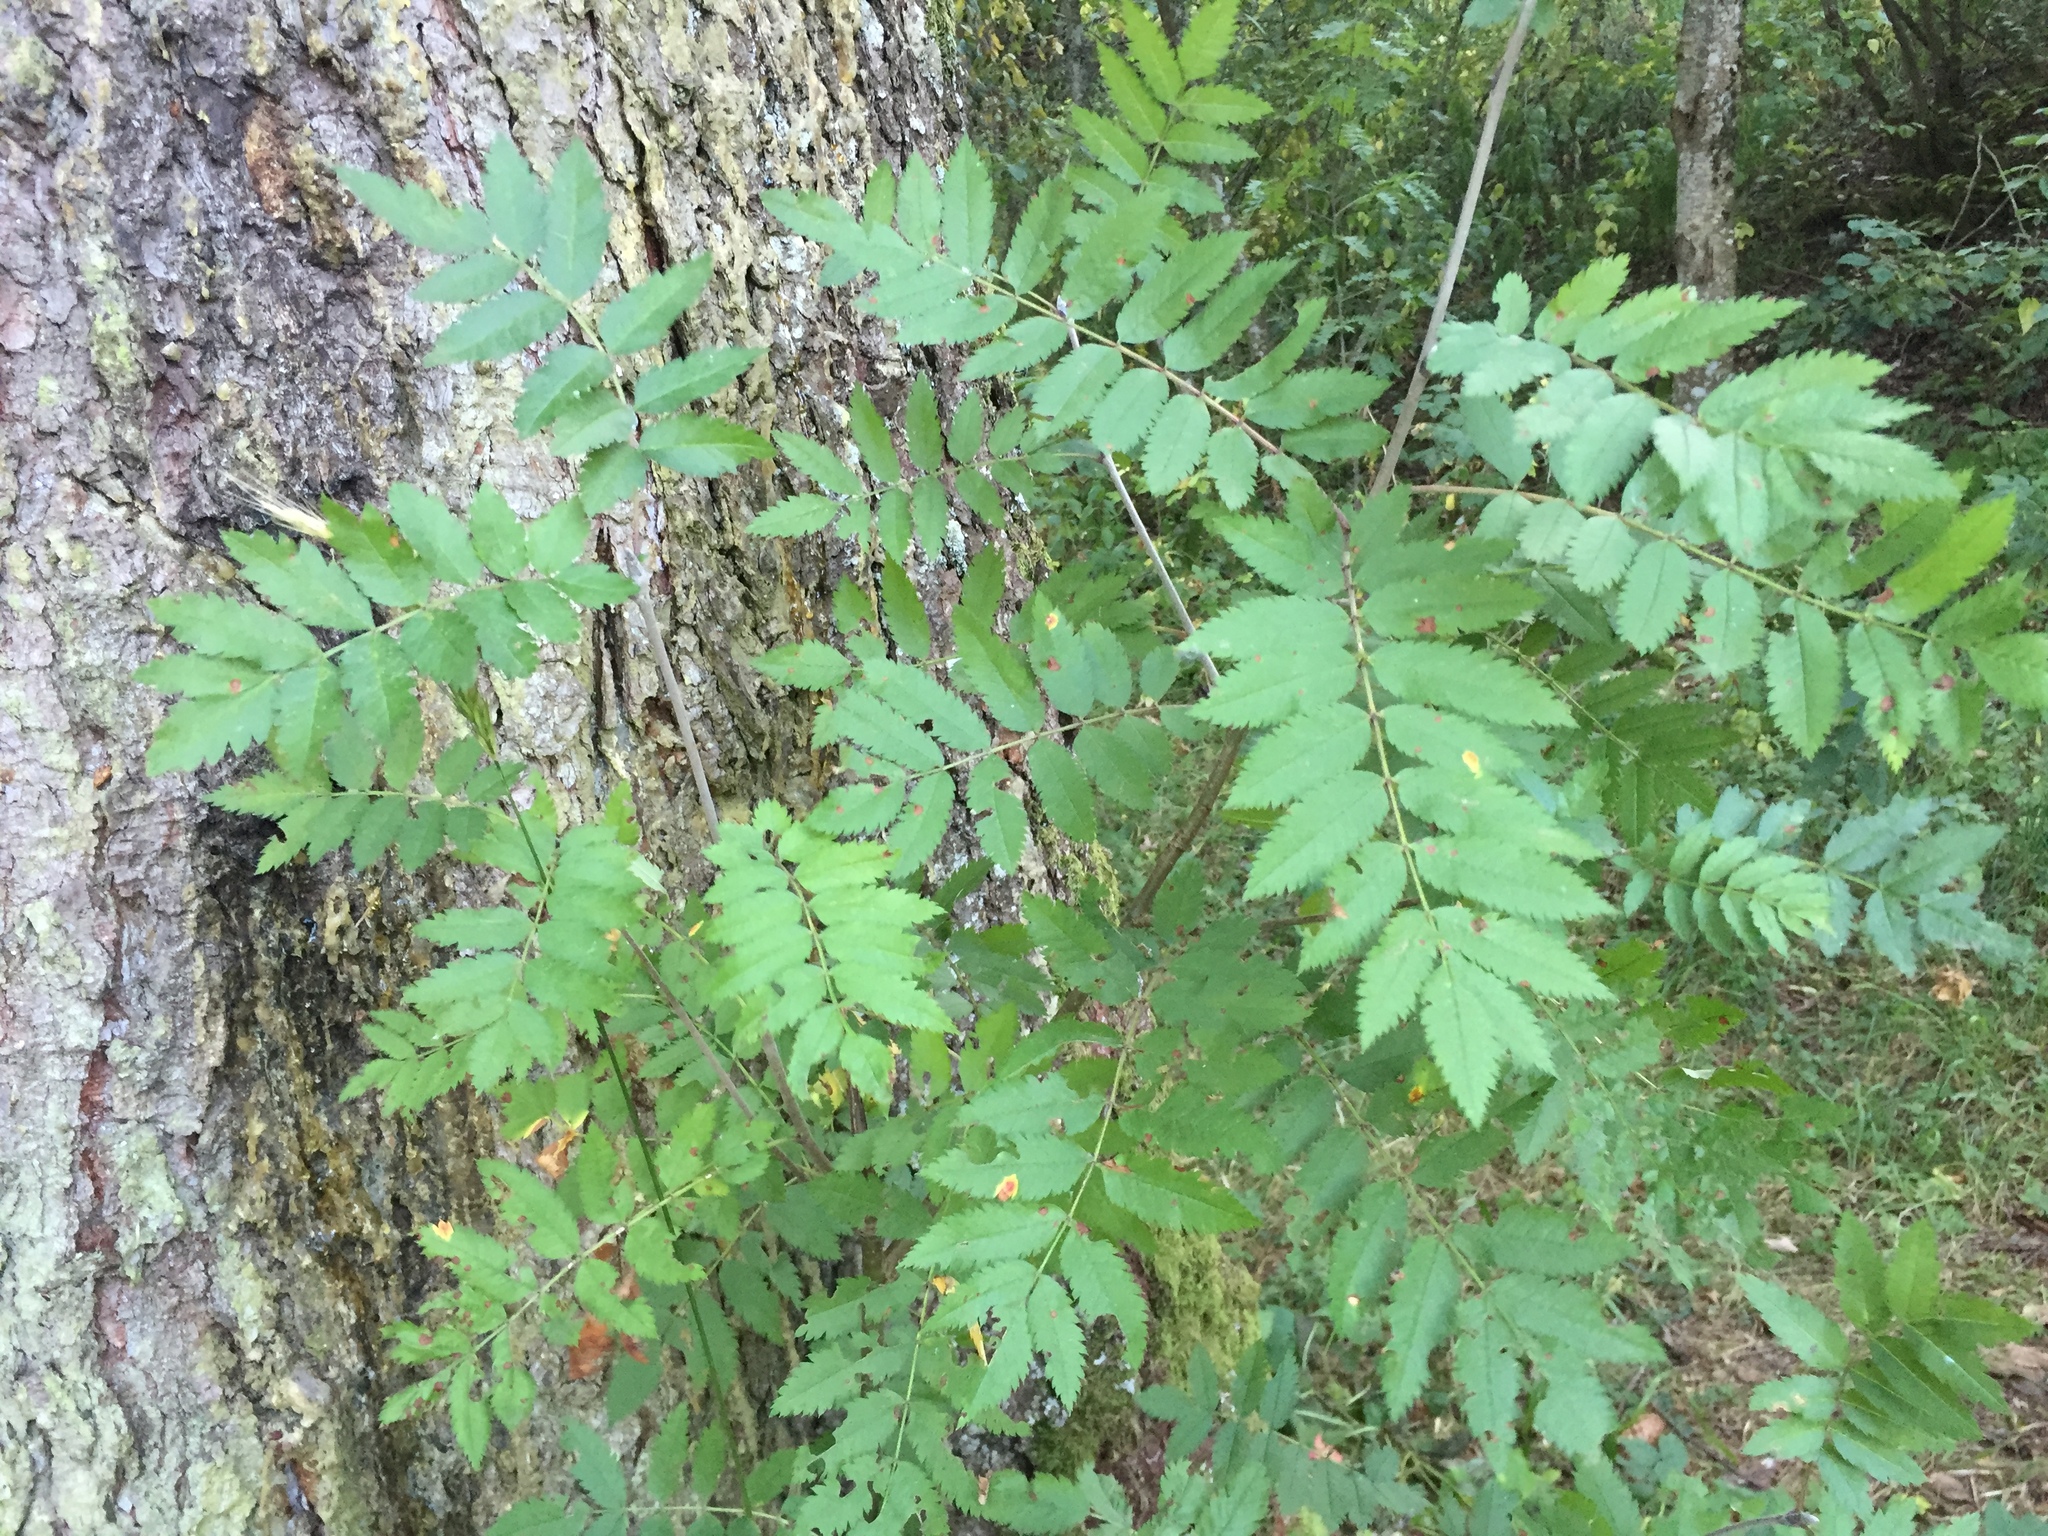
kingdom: Plantae
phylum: Tracheophyta
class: Magnoliopsida
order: Rosales
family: Rosaceae
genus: Sorbus
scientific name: Sorbus aucuparia
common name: Rowan
